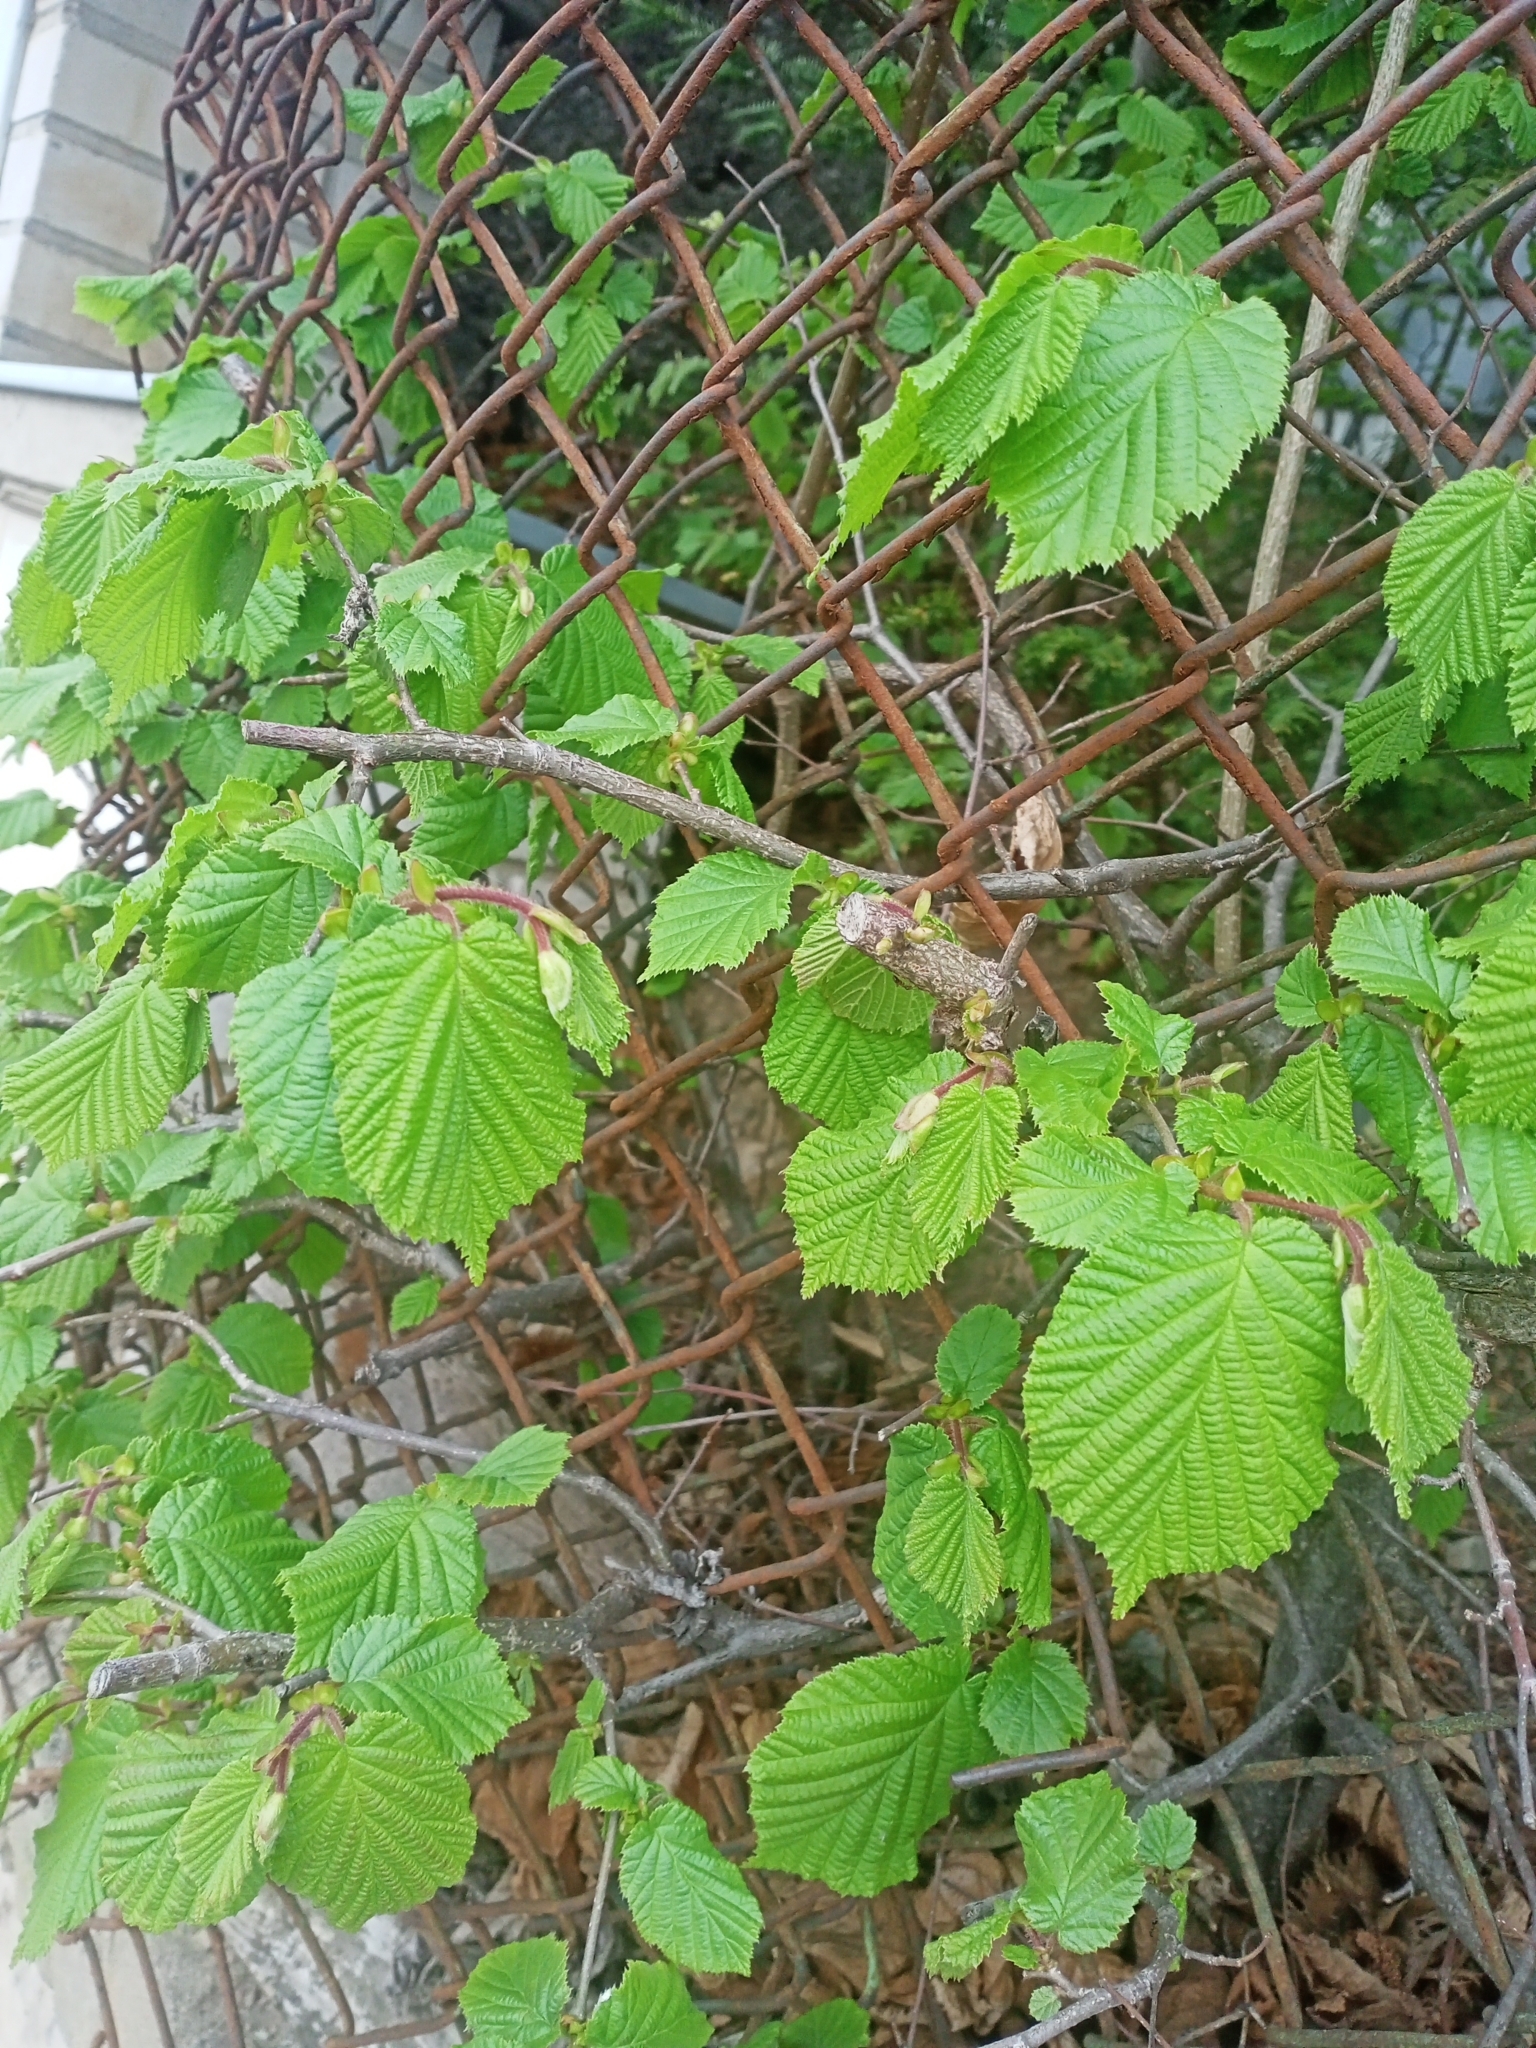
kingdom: Plantae
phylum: Tracheophyta
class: Magnoliopsida
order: Fagales
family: Betulaceae
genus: Corylus
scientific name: Corylus avellana
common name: European hazel
